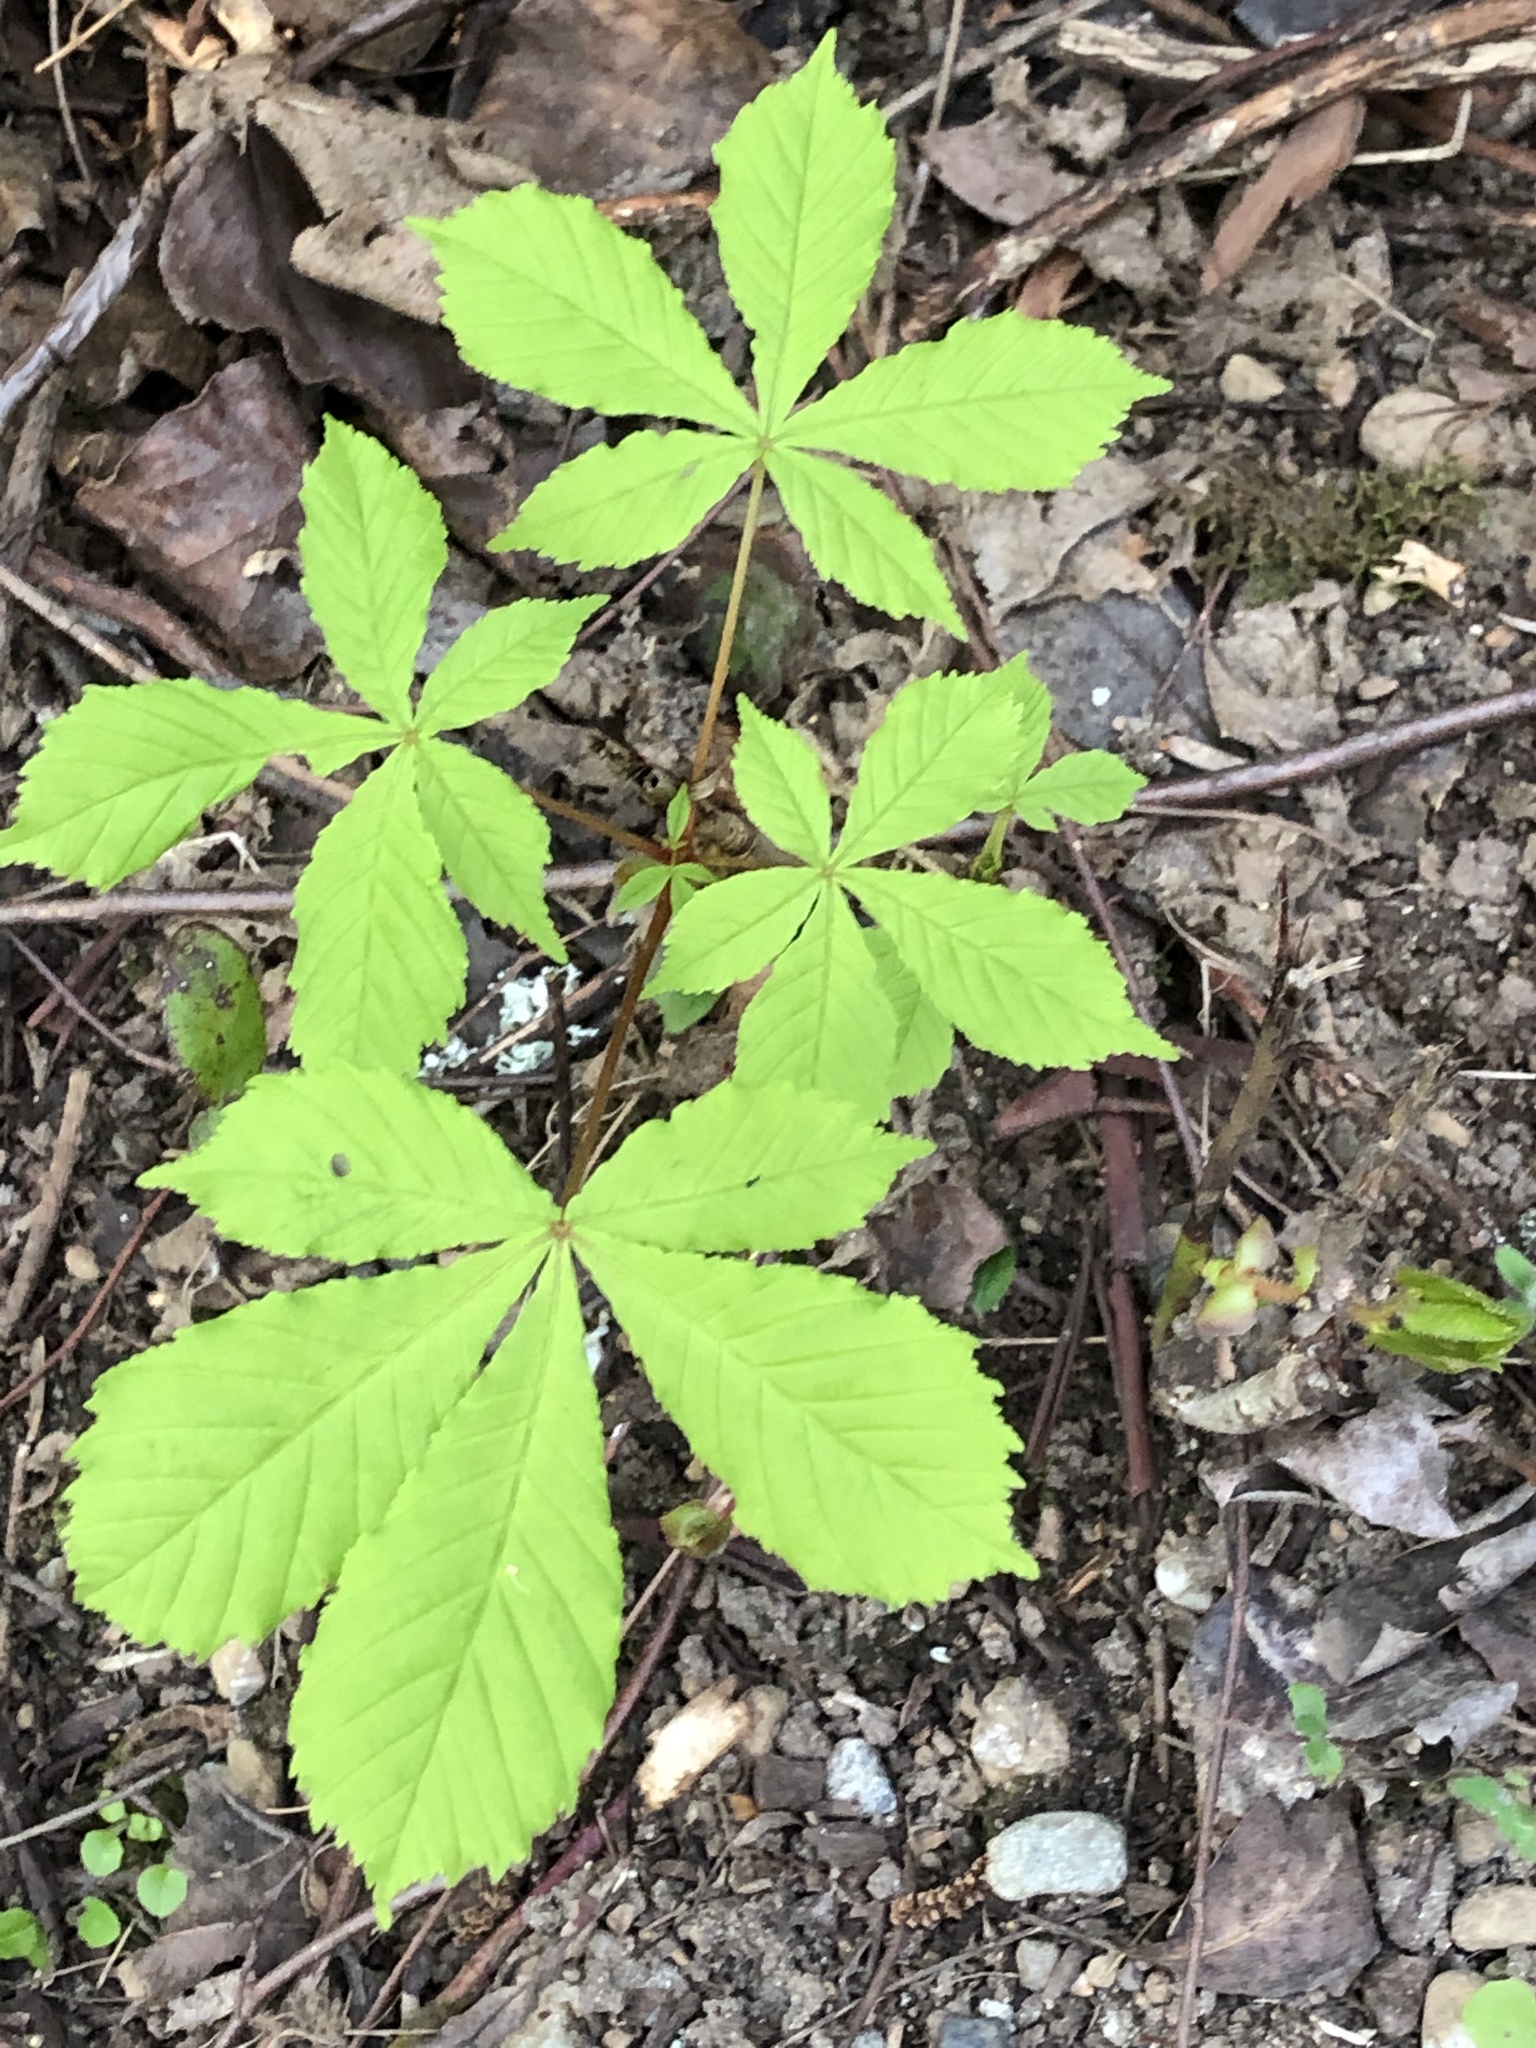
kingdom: Plantae
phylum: Tracheophyta
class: Magnoliopsida
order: Sapindales
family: Sapindaceae
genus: Aesculus
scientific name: Aesculus hippocastanum
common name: Horse-chestnut
